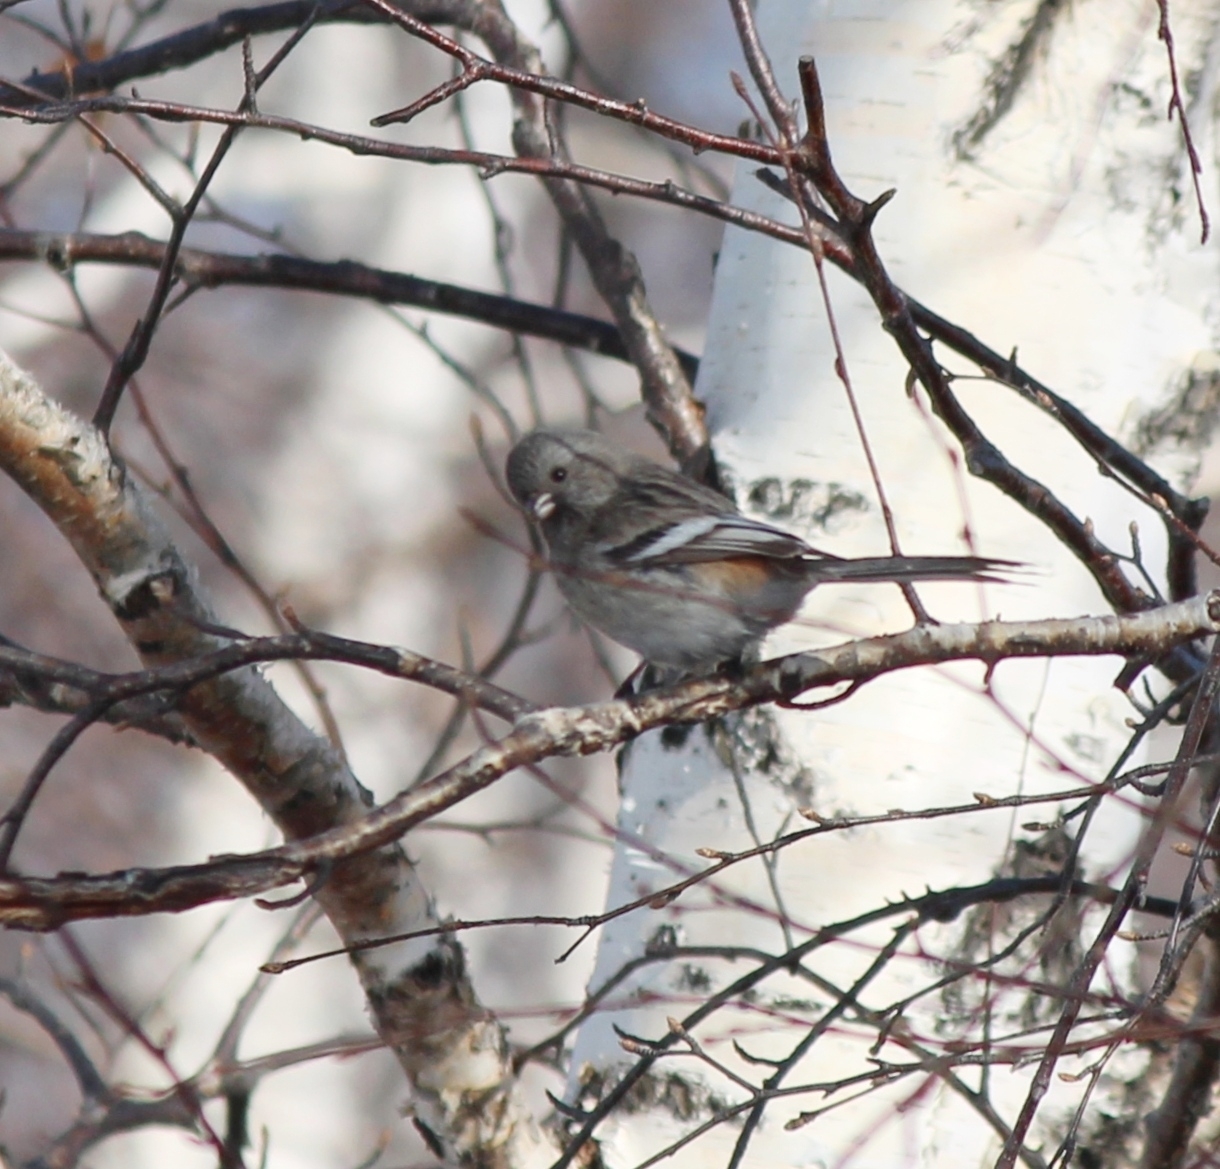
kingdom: Animalia
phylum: Chordata
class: Aves
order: Passeriformes
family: Fringillidae
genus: Carpodacus
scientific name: Carpodacus sibiricus
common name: Long-tailed rosefinch
